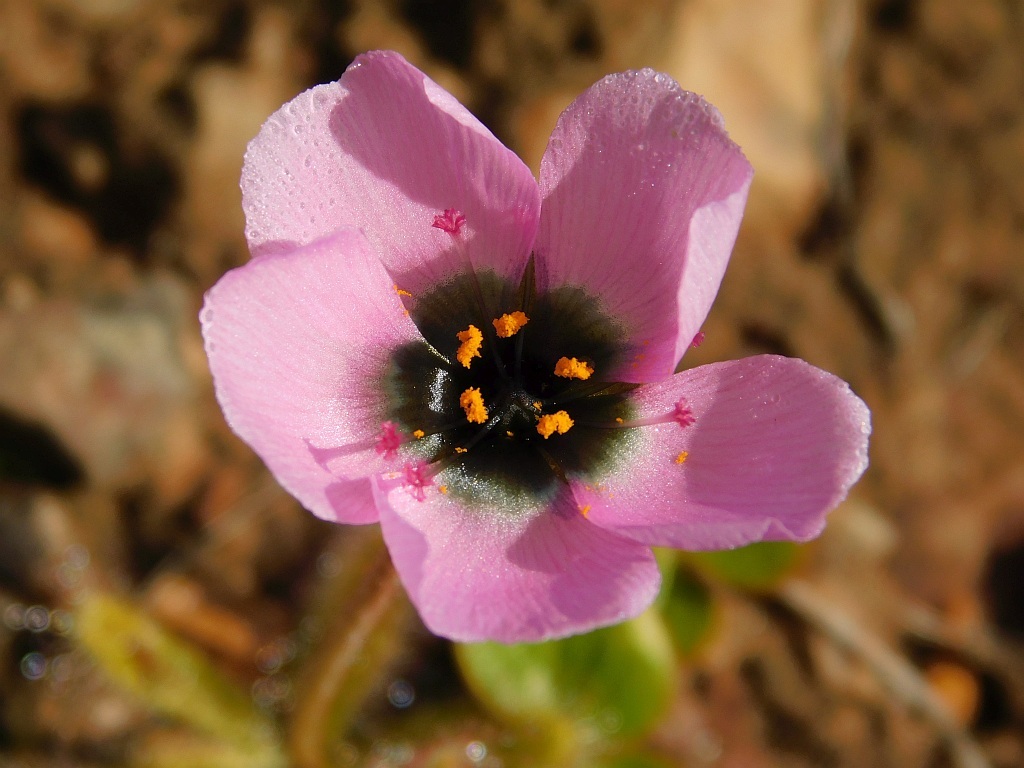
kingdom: Plantae
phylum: Tracheophyta
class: Magnoliopsida
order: Caryophyllales
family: Droseraceae
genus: Drosera
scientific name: Drosera cistiflora
